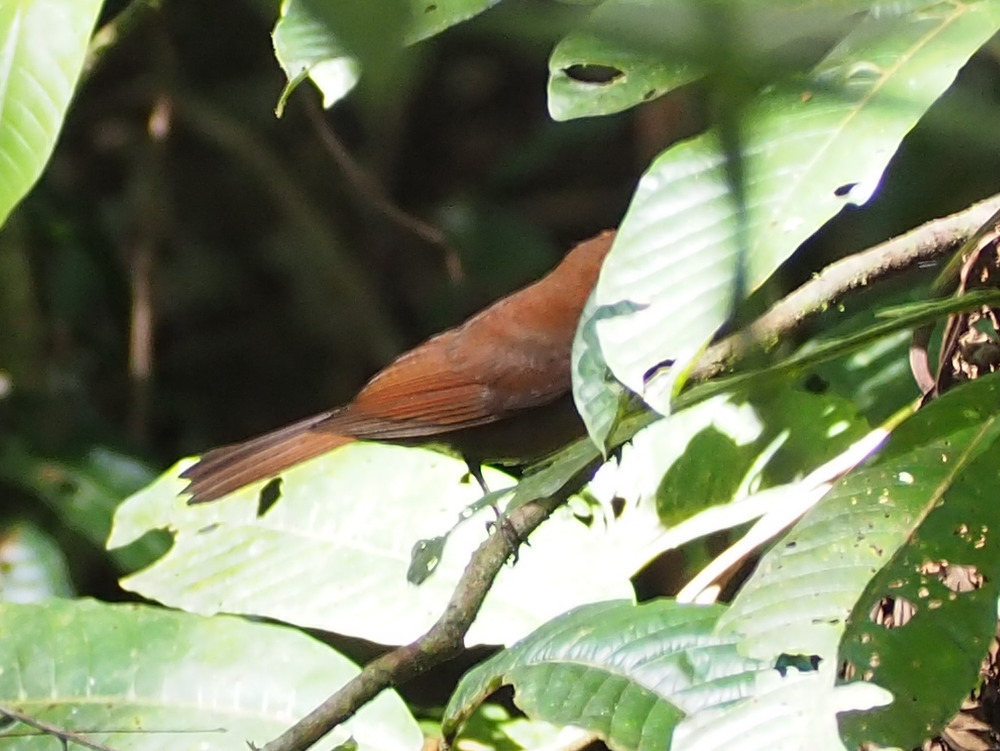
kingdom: Animalia
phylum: Chordata
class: Aves
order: Passeriformes
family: Cardinalidae
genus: Habia
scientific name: Habia rubica
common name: Red-crowned ant-tanager
